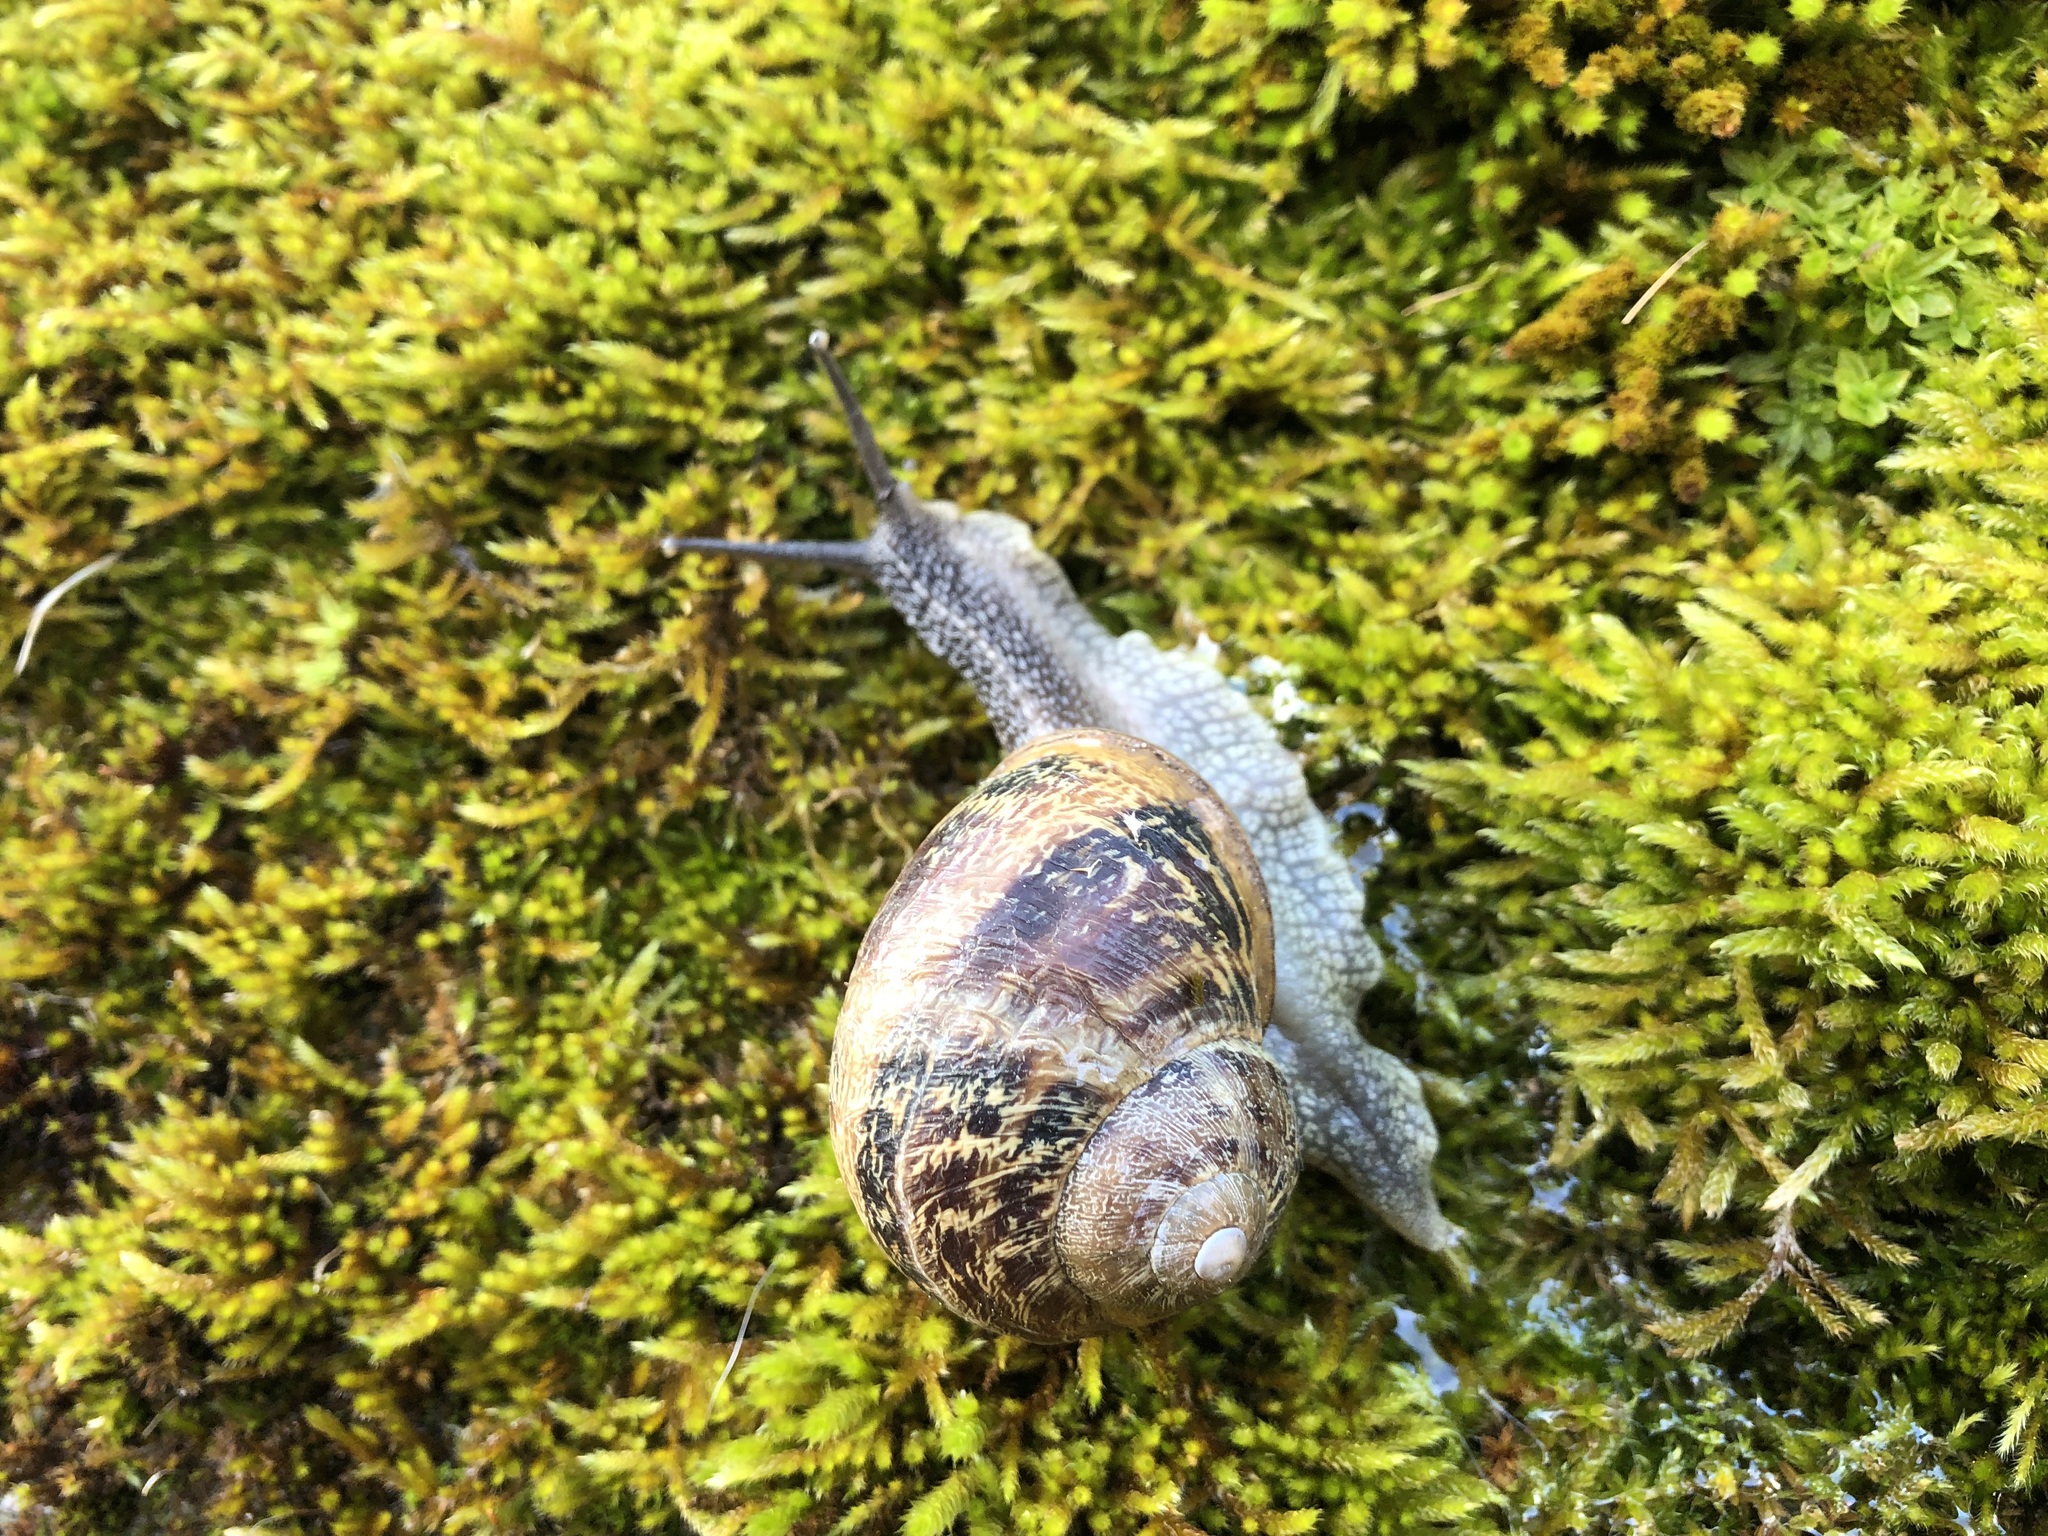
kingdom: Animalia
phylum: Mollusca
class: Gastropoda
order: Stylommatophora
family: Helicidae
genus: Cornu
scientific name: Cornu aspersum
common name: Brown garden snail
